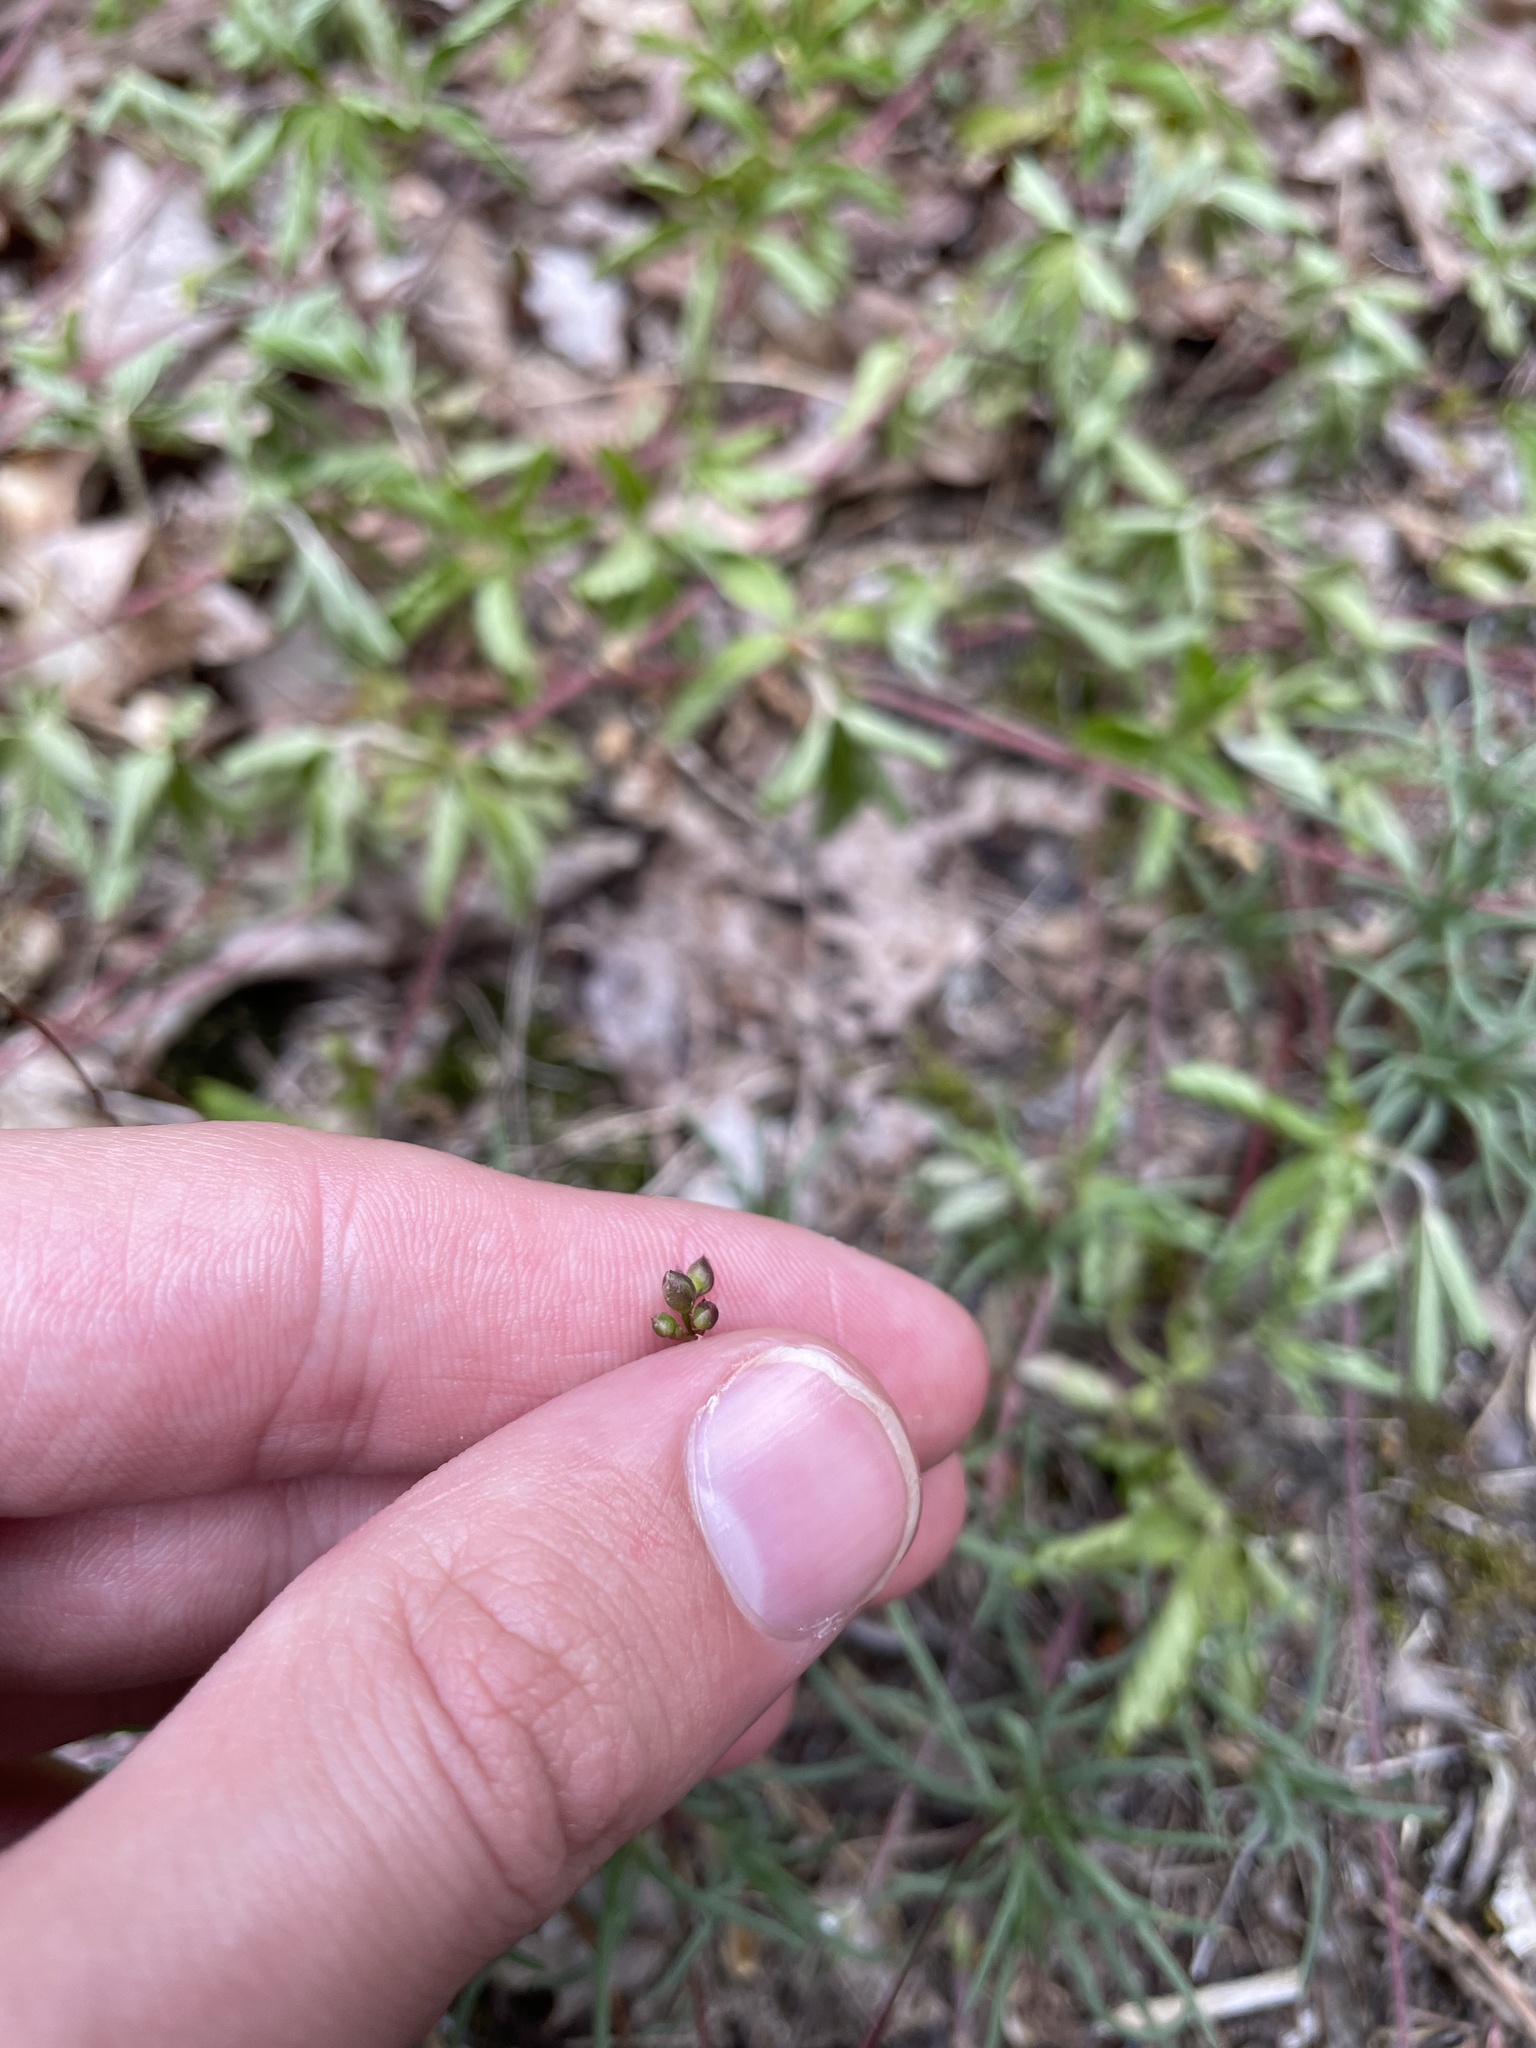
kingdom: Plantae
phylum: Tracheophyta
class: Magnoliopsida
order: Caryophyllales
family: Montiaceae
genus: Phemeranthus
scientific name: Phemeranthus teretifolius
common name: Quill fameflower
